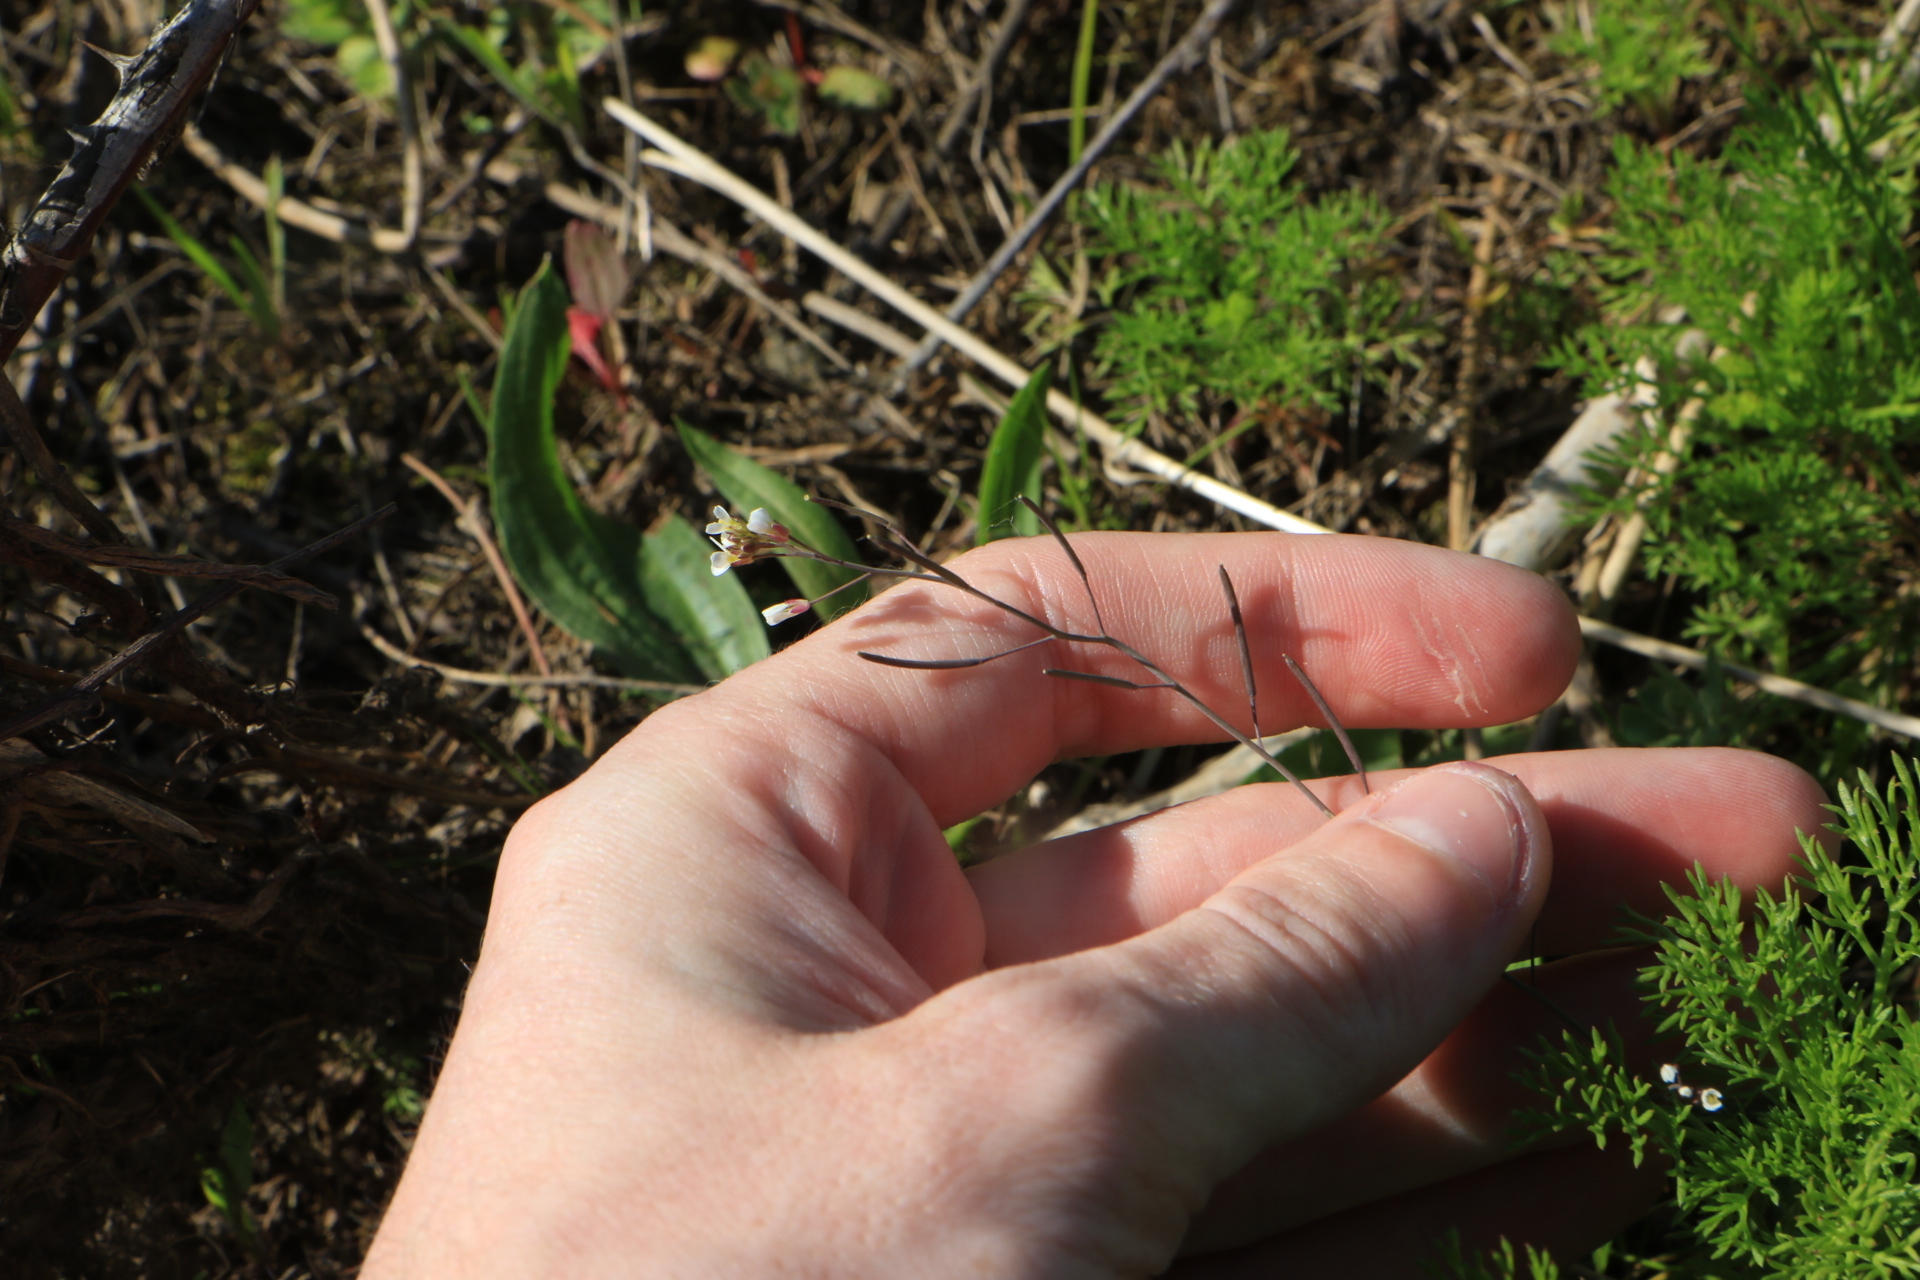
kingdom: Plantae
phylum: Tracheophyta
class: Magnoliopsida
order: Brassicales
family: Brassicaceae
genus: Arabidopsis
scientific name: Arabidopsis thaliana
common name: Thale cress
